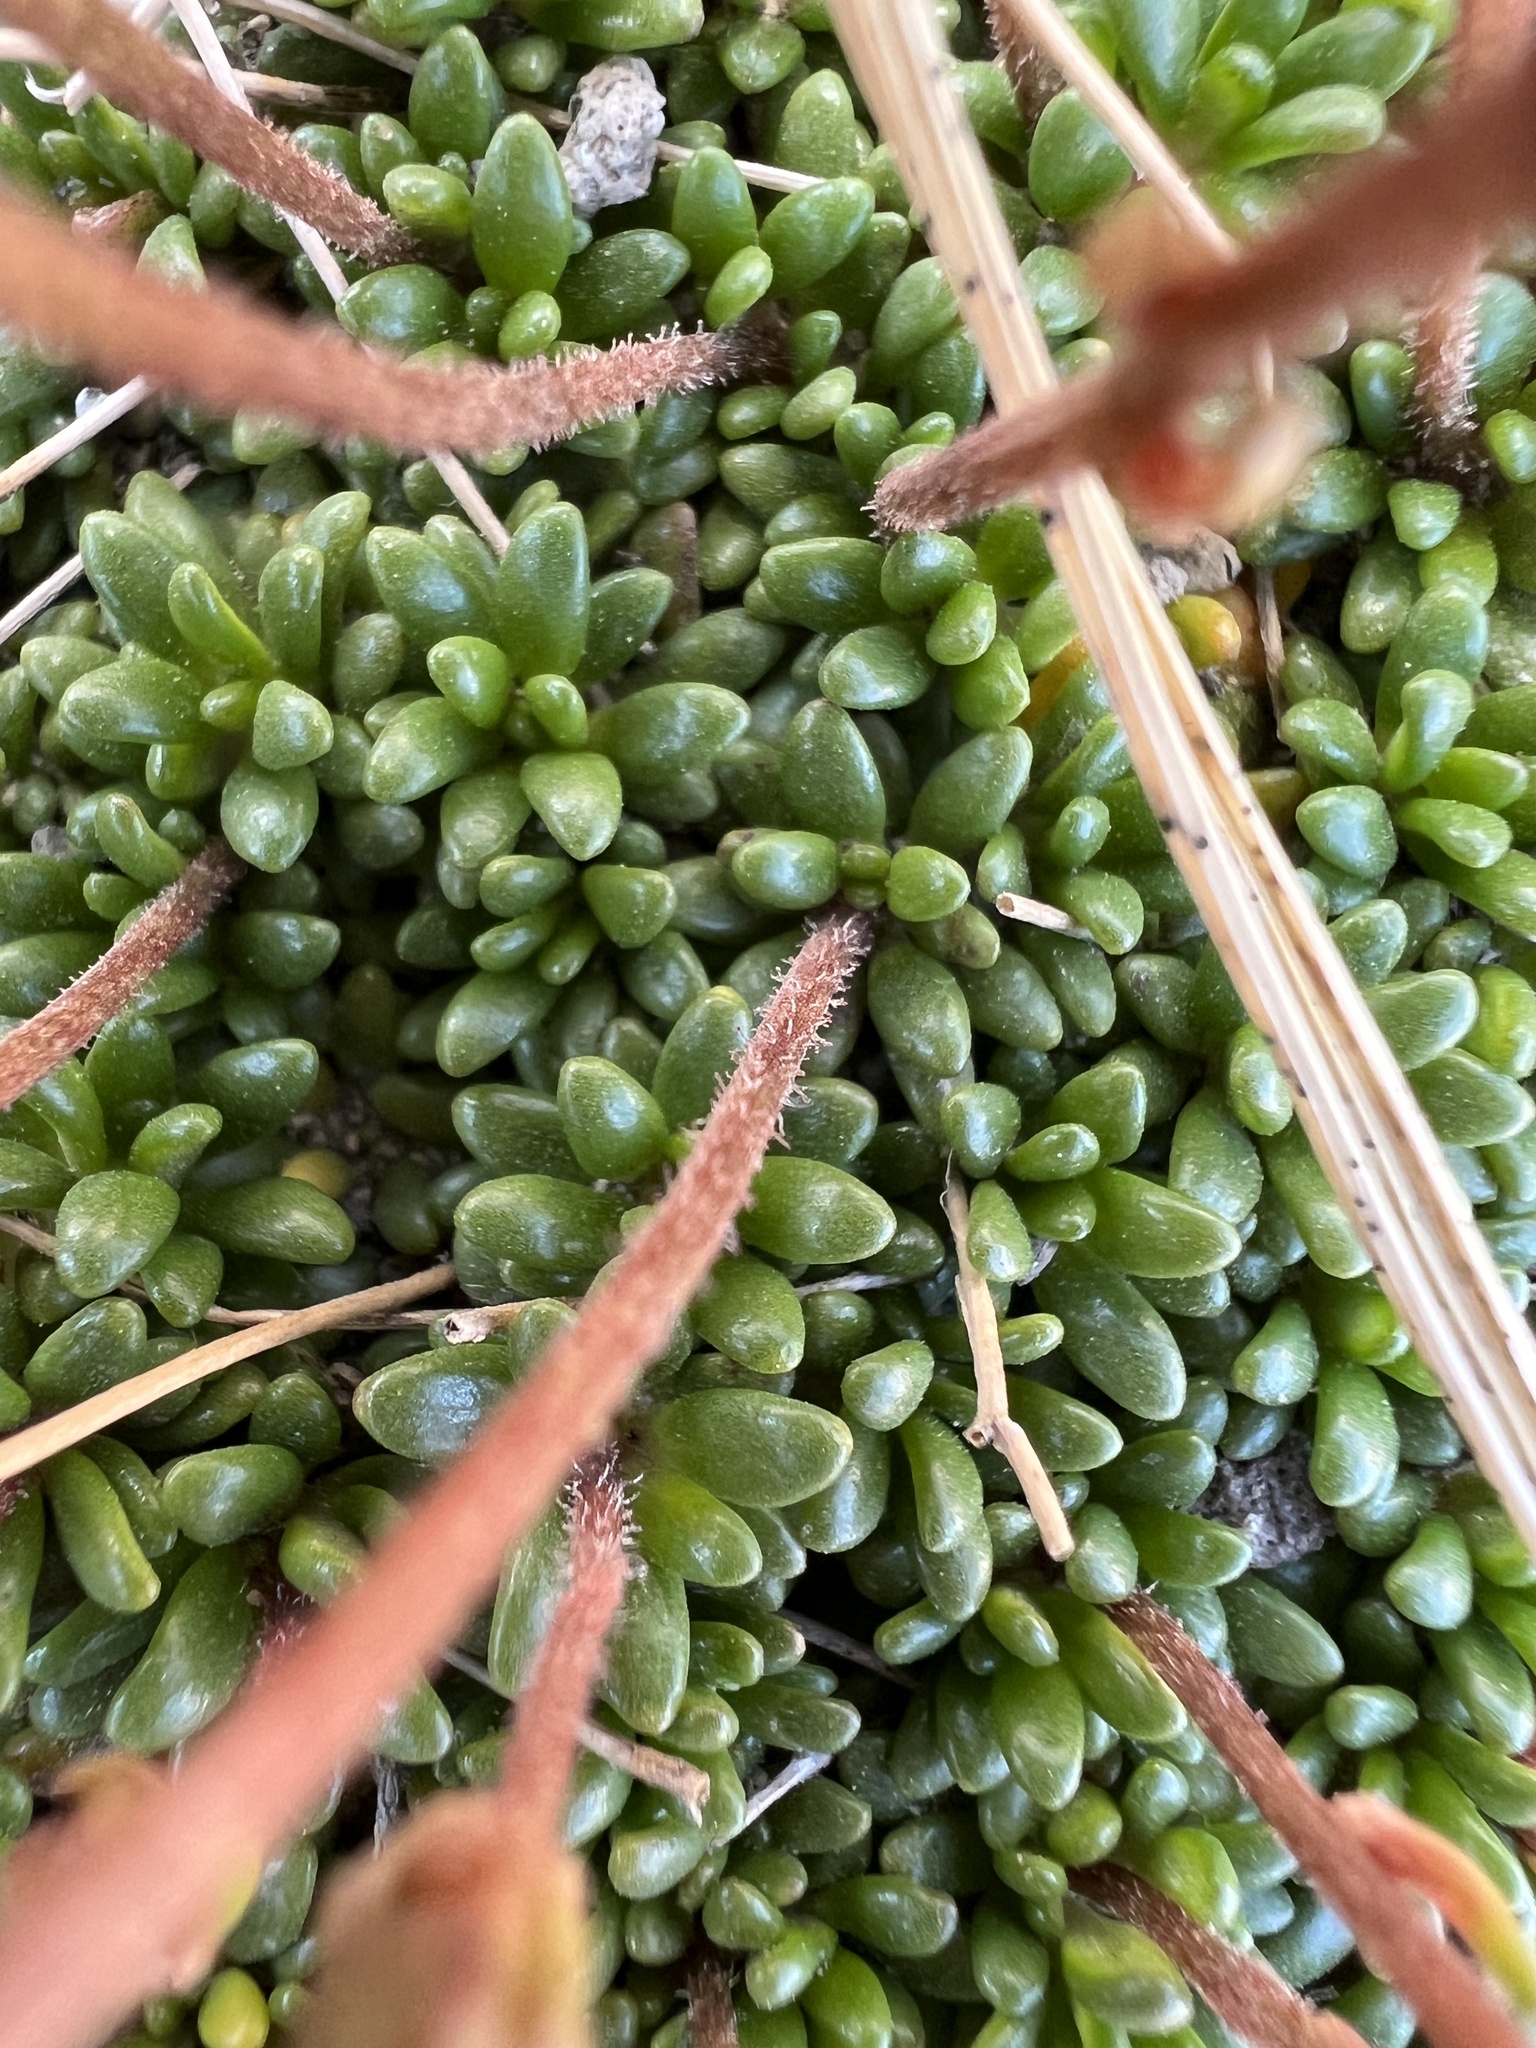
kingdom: Plantae
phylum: Tracheophyta
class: Magnoliopsida
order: Saxifragales
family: Saxifragaceae
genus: Micranthes
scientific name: Micranthes tolmiei
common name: Tolmie's saxifrage
